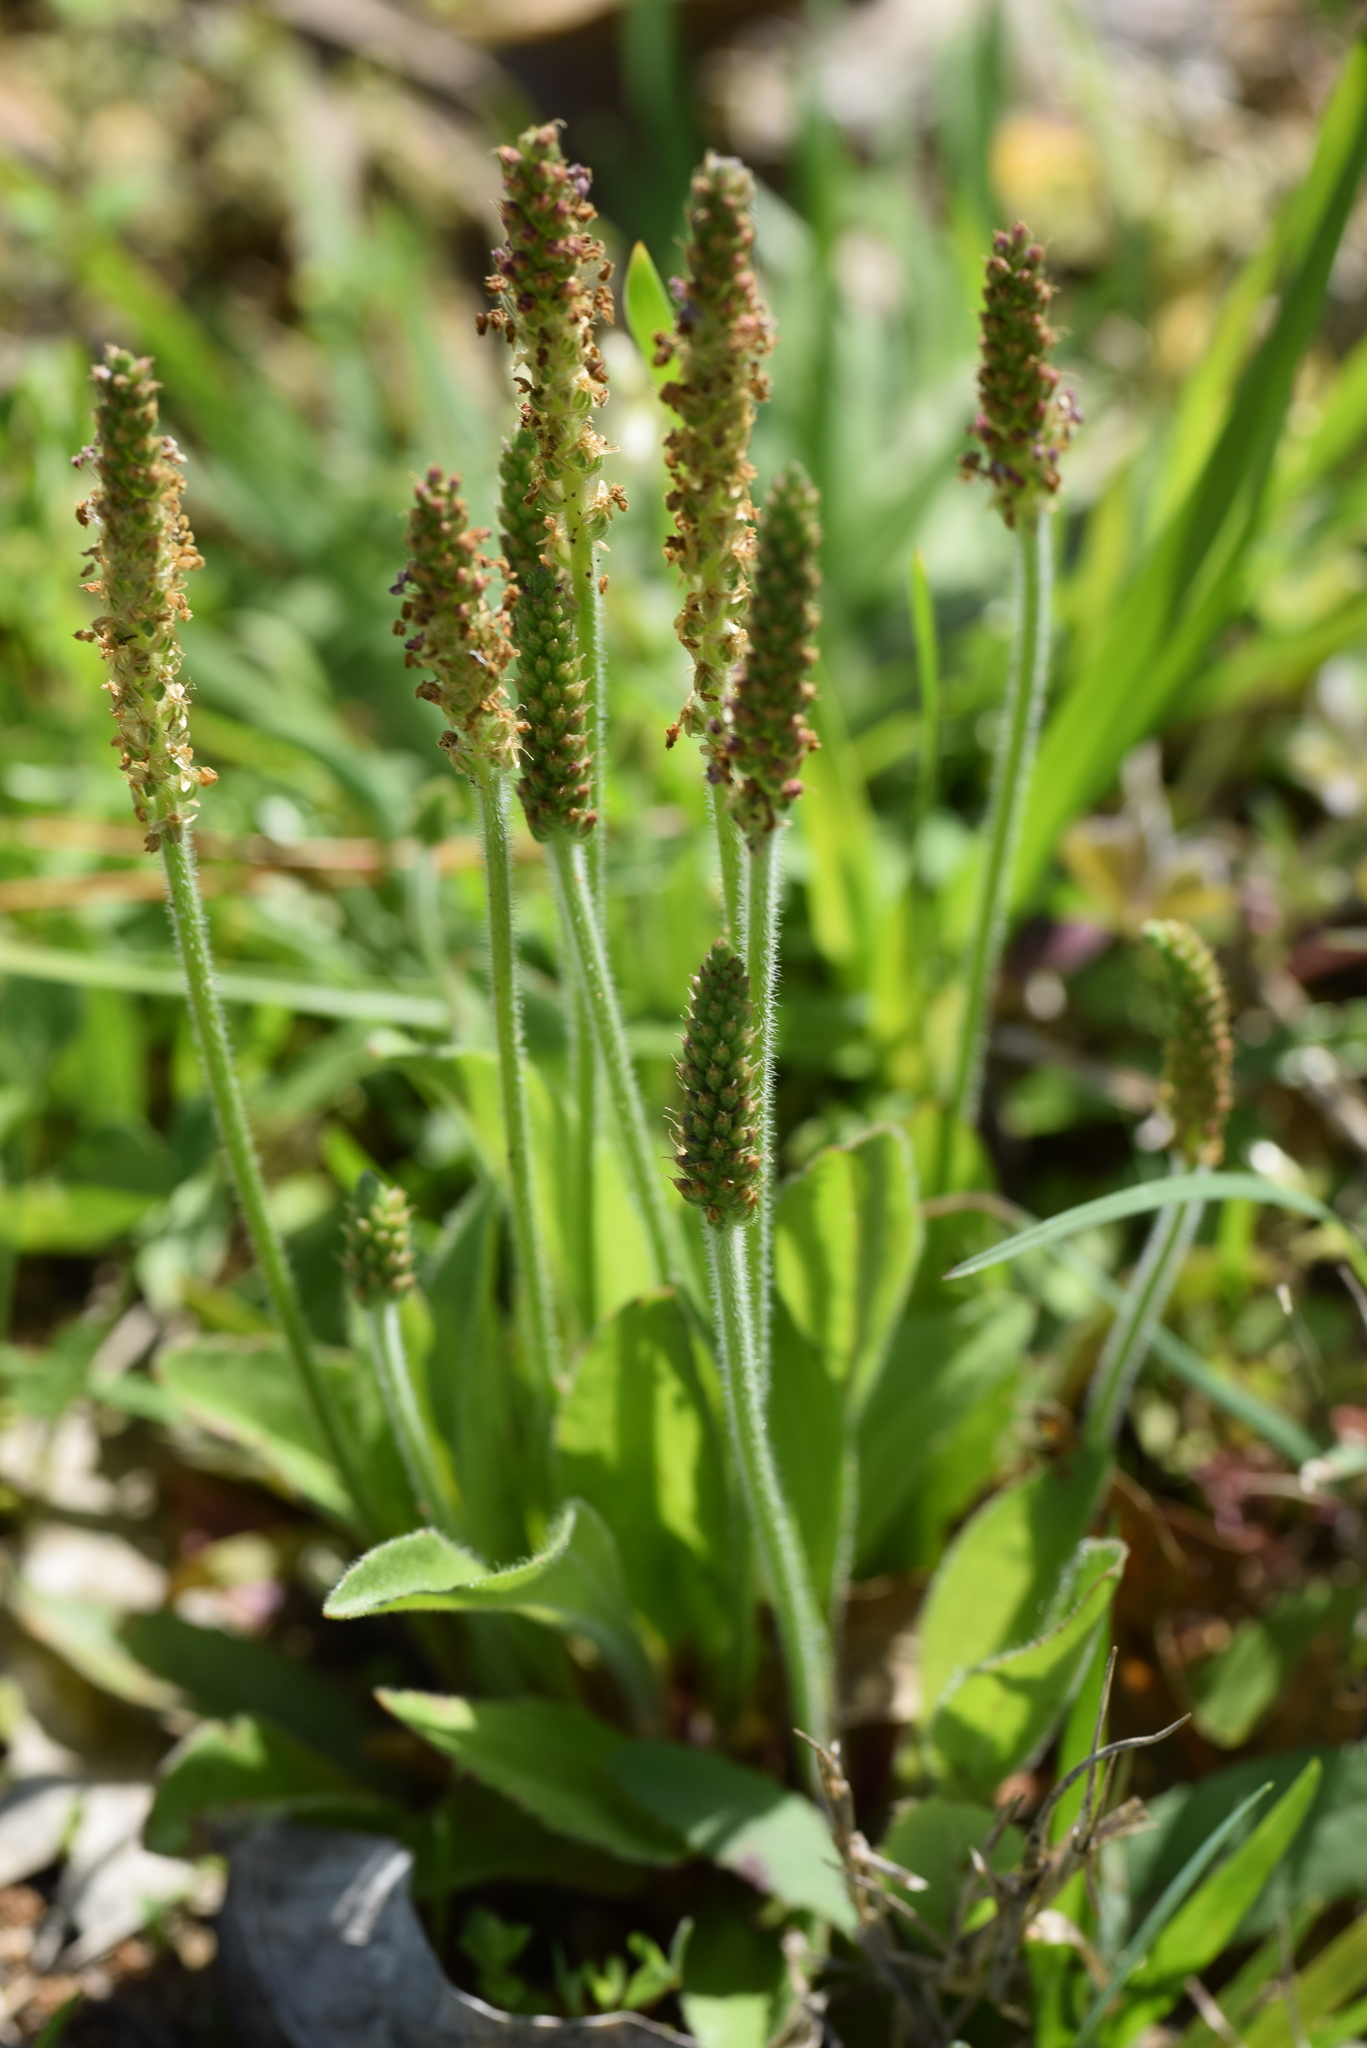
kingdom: Plantae
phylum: Tracheophyta
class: Magnoliopsida
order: Lamiales
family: Plantaginaceae
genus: Plantago
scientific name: Plantago virginica
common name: Hoary plantain
